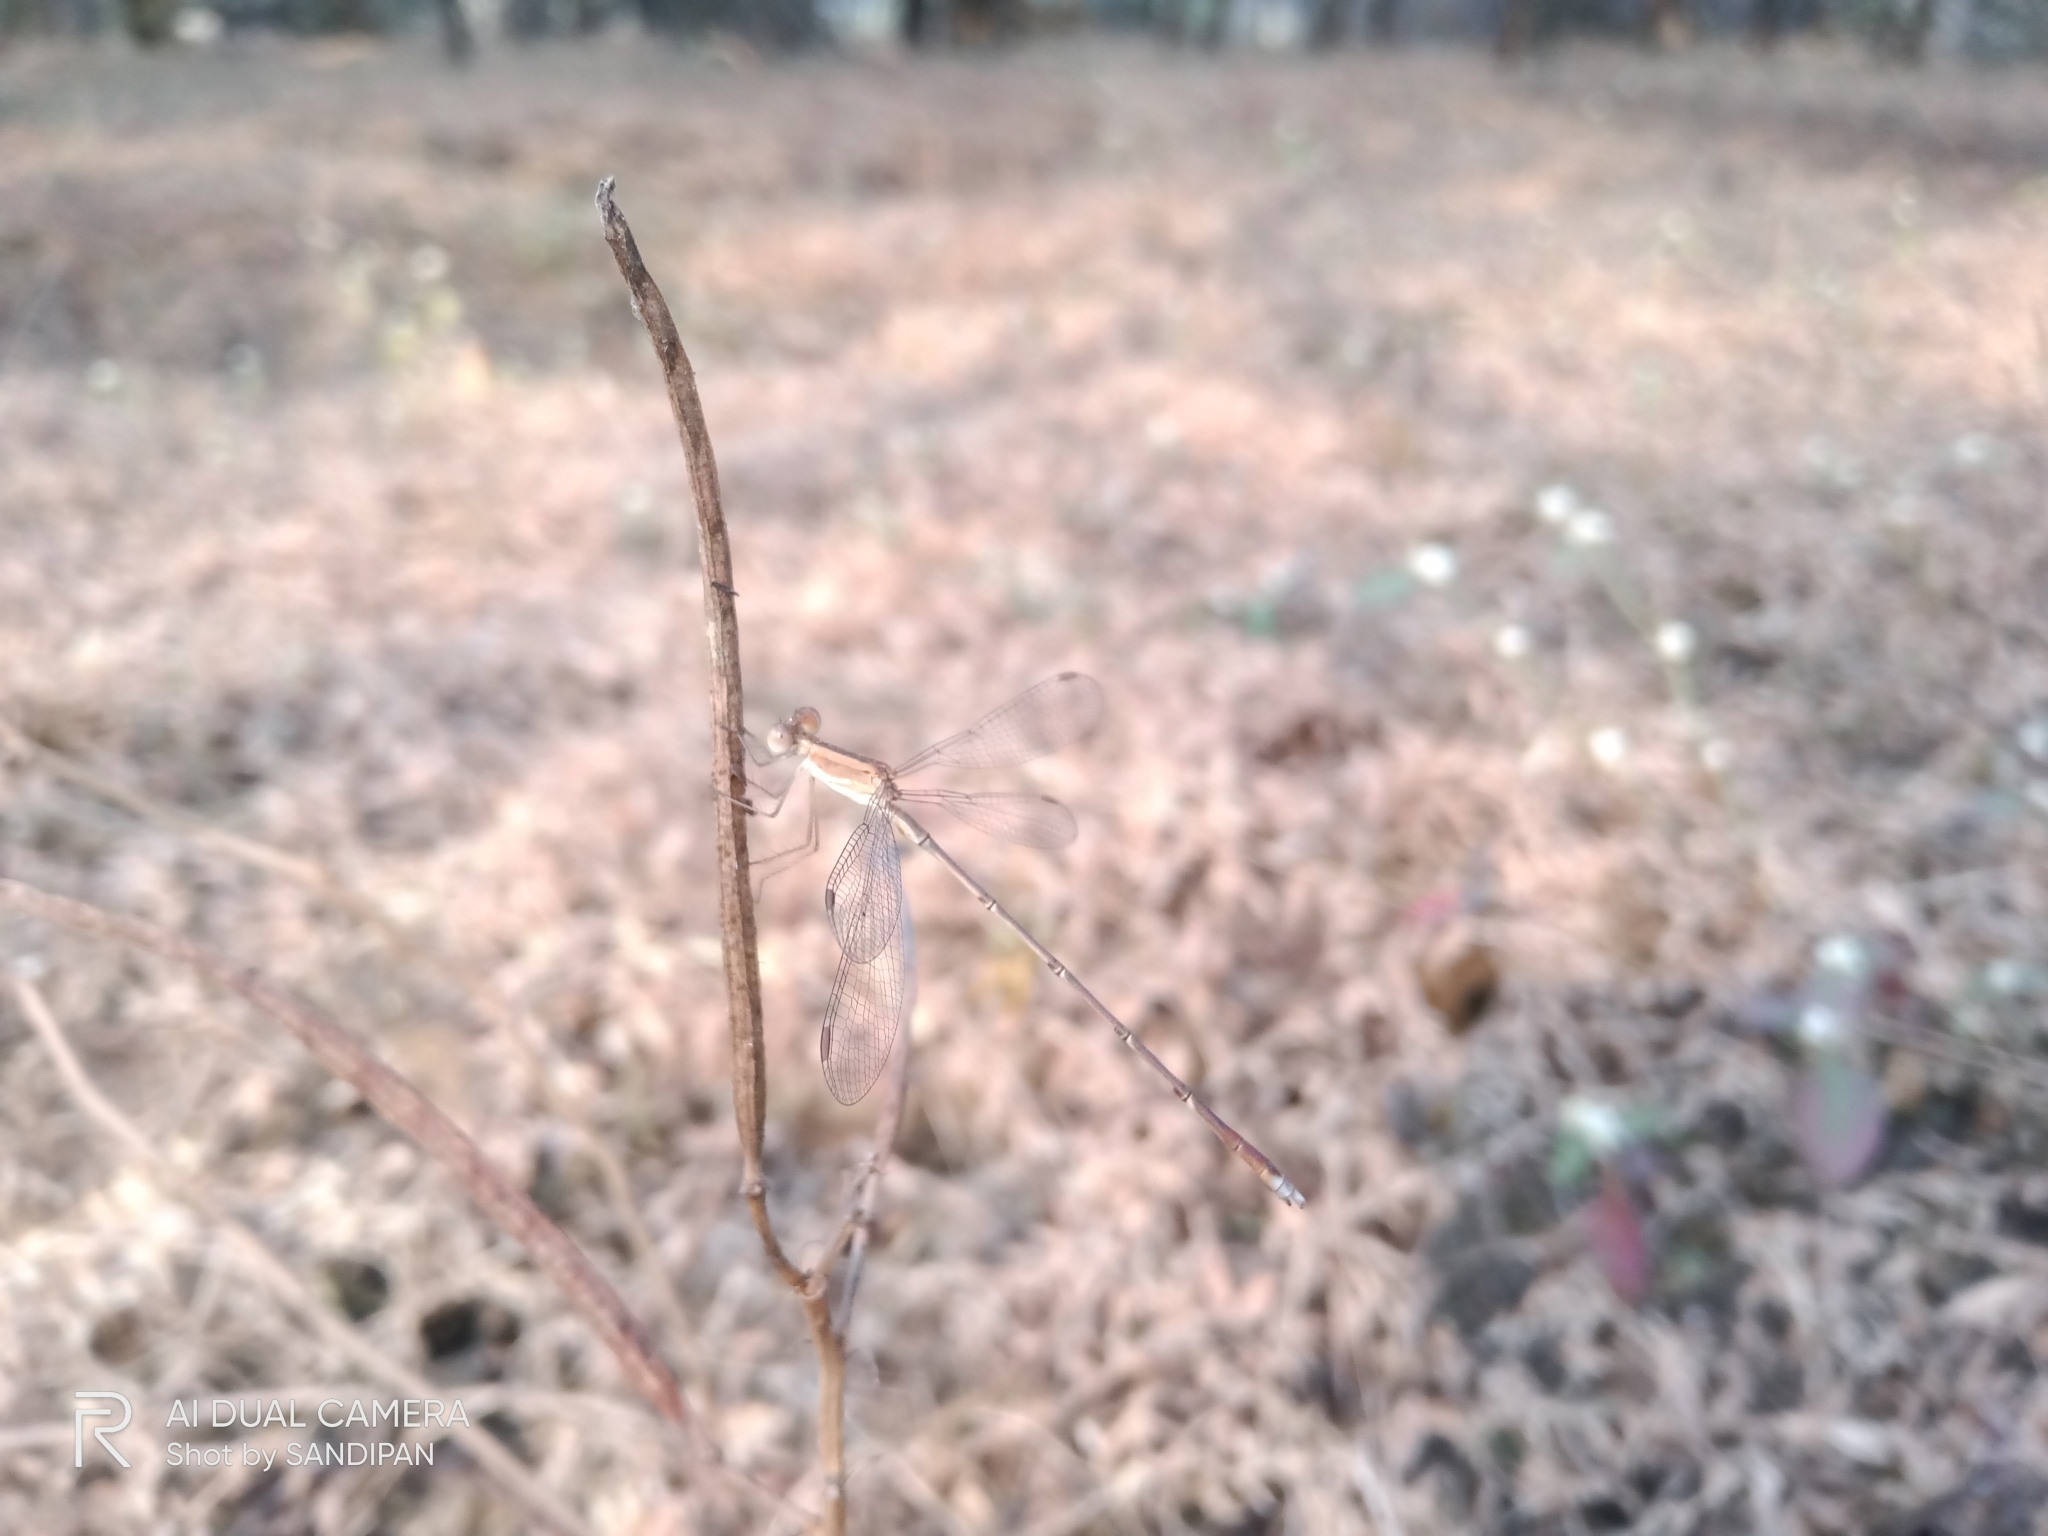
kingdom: Animalia
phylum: Arthropoda
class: Insecta
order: Odonata
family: Lestidae
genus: Lestes
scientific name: Lestes concinnus
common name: Dusky spreadwing
